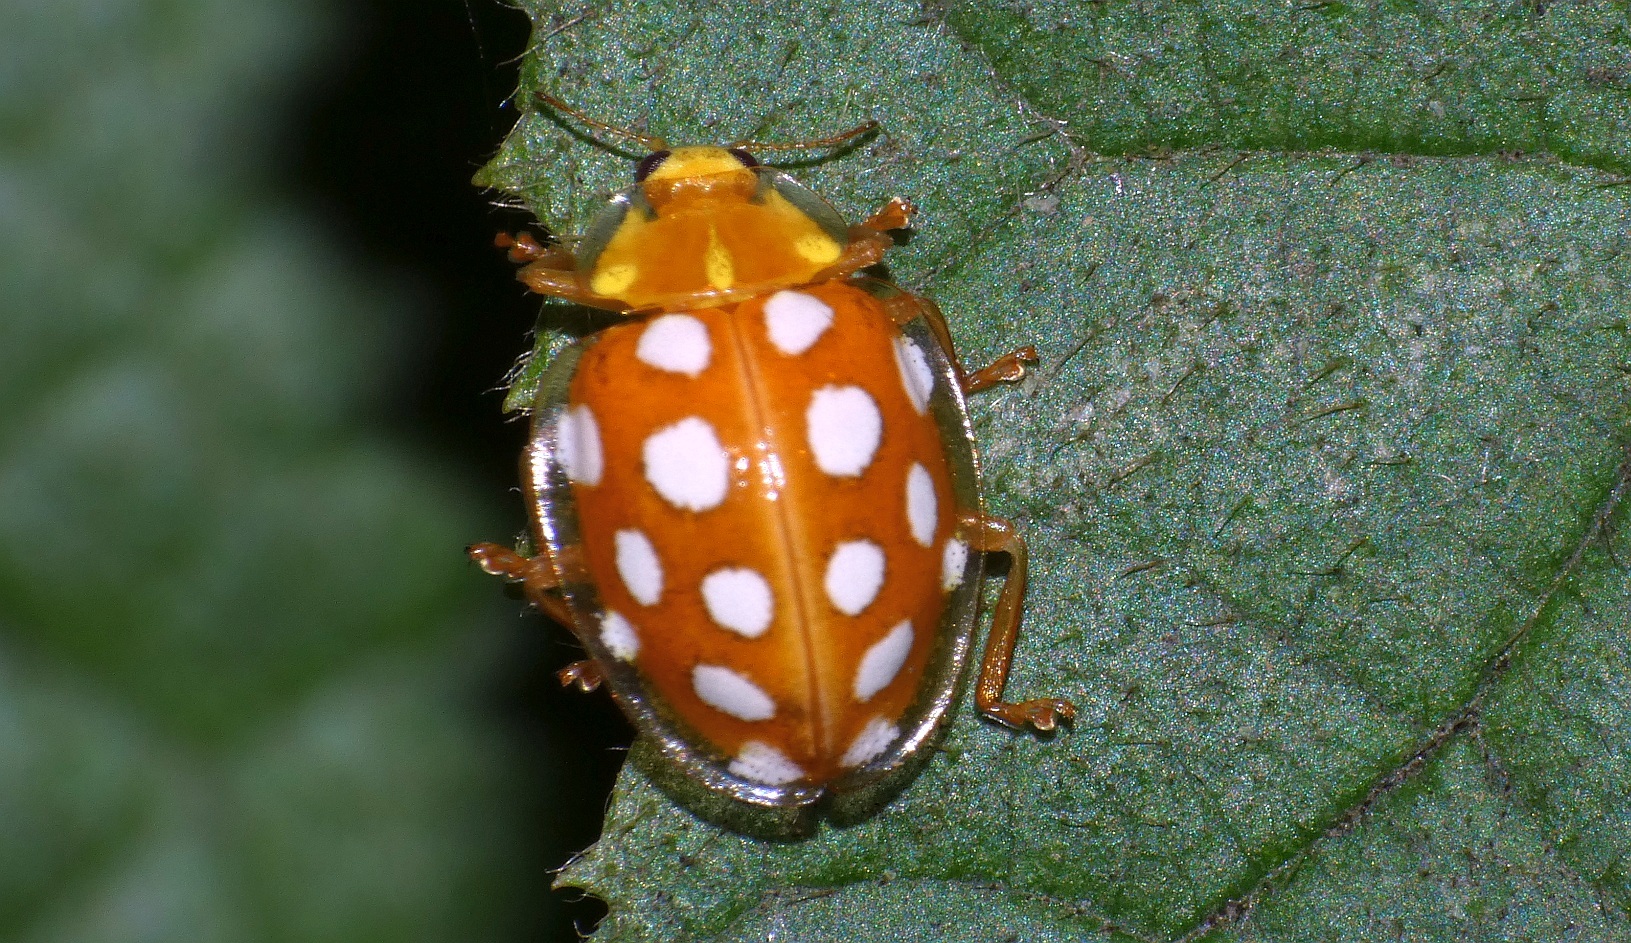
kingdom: Animalia
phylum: Arthropoda
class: Insecta
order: Coleoptera
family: Coccinellidae
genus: Halyzia
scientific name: Halyzia sedecimguttata
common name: Orange ladybird
